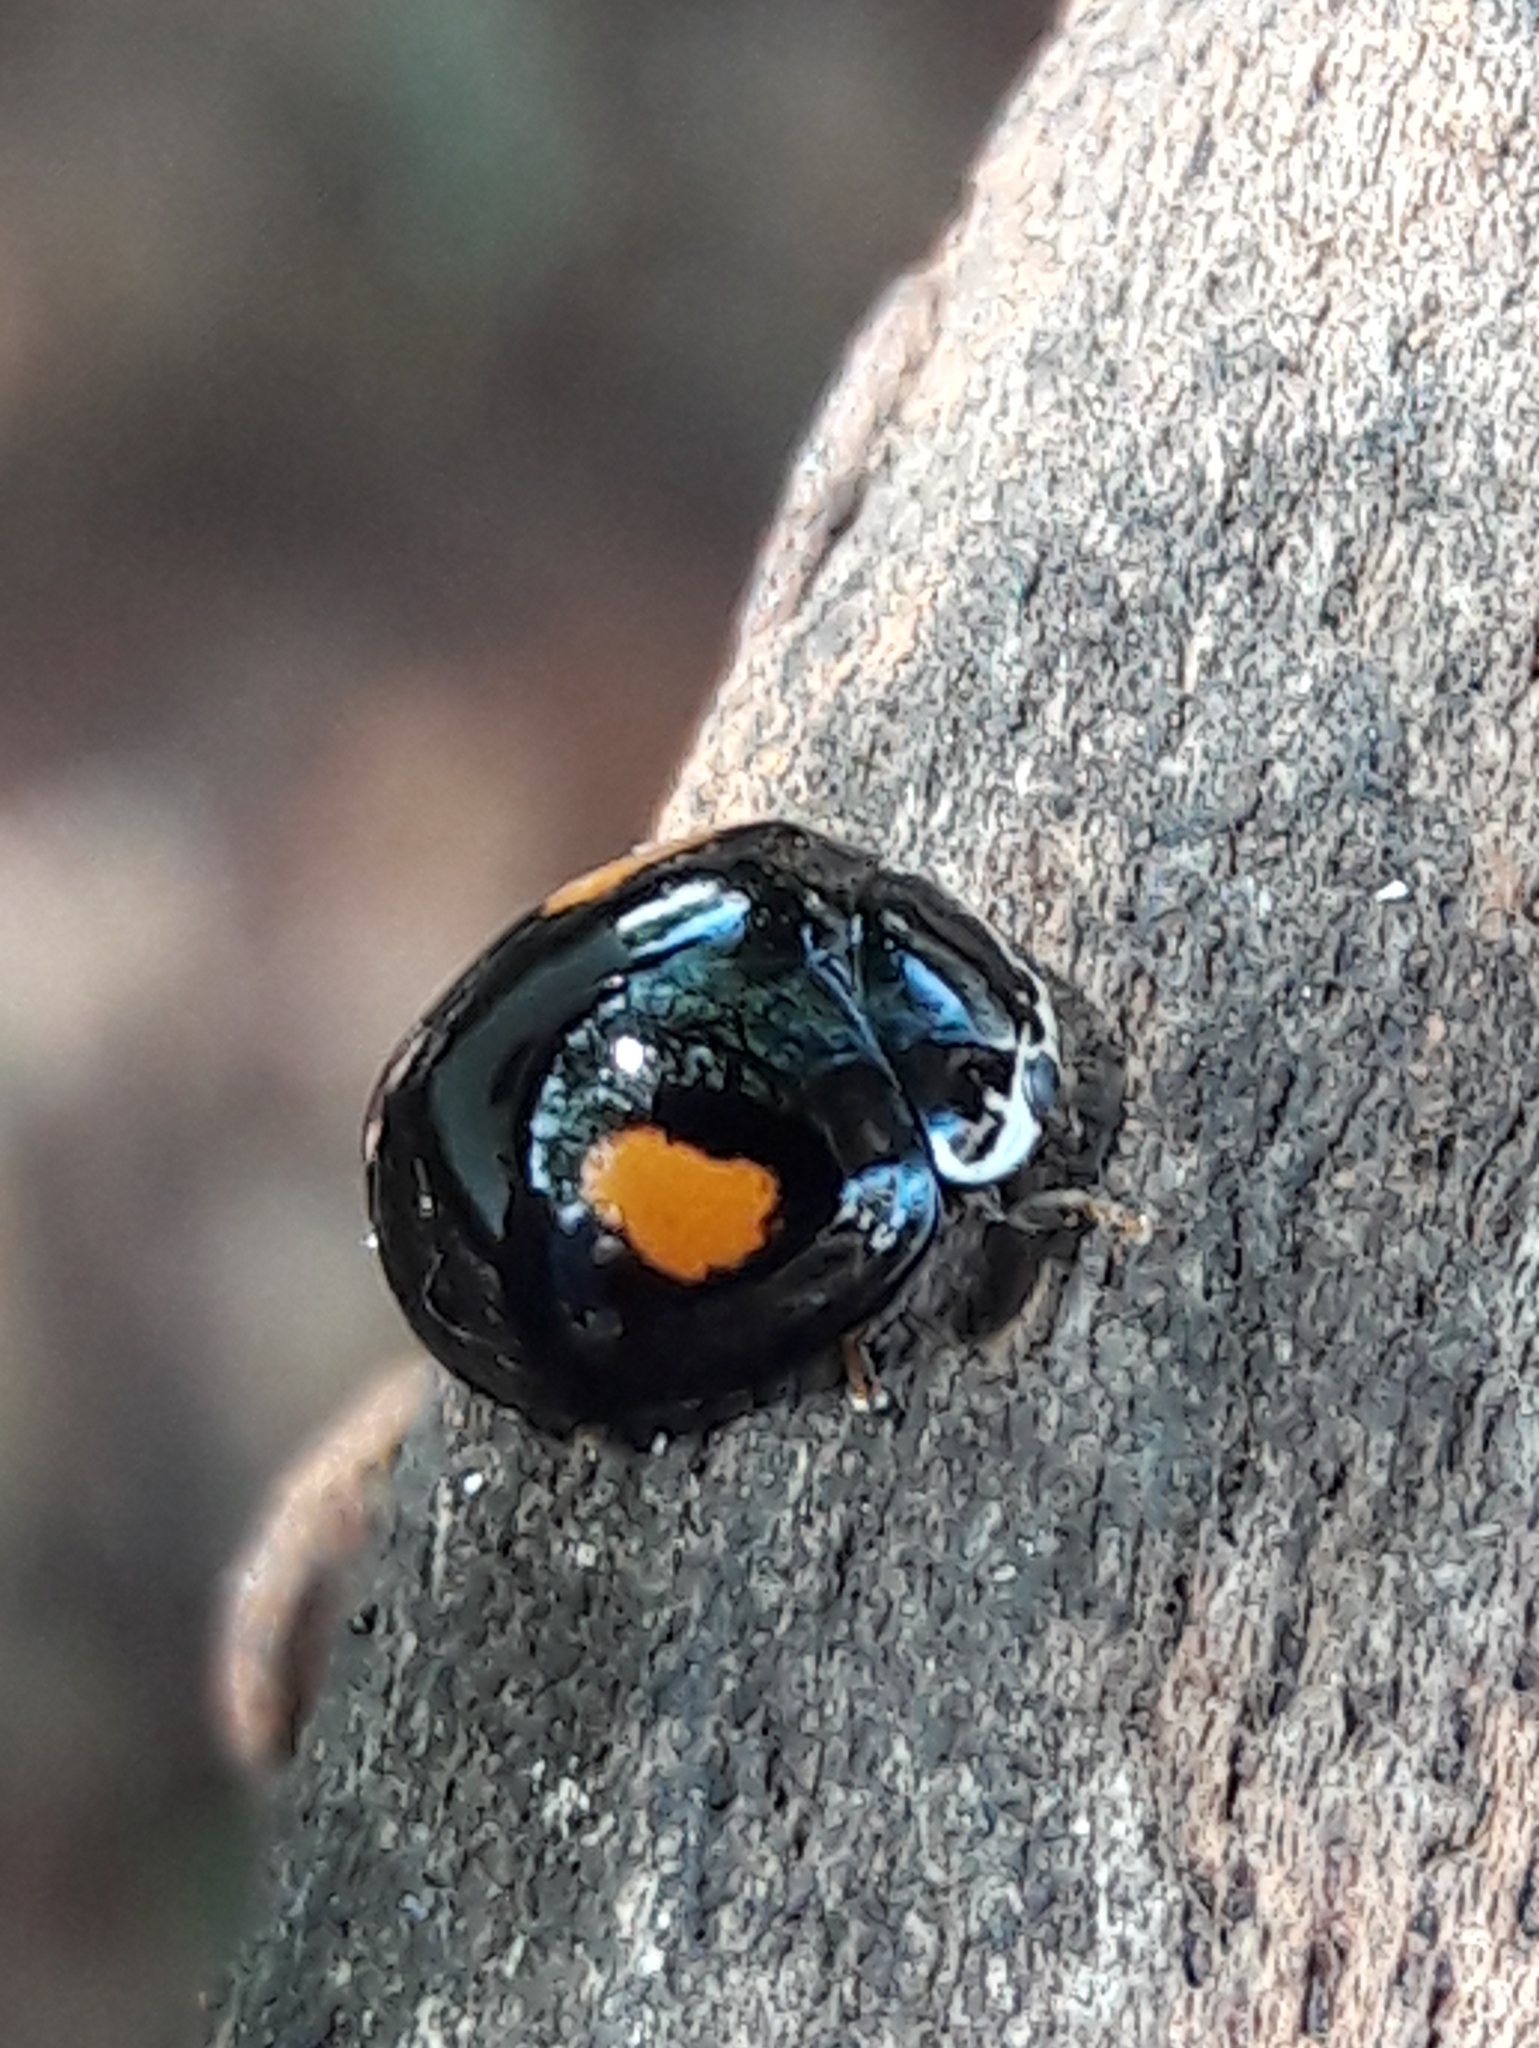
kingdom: Animalia
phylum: Arthropoda
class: Insecta
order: Coleoptera
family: Coccinellidae
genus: Olla
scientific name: Olla v-nigrum
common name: Ashy gray lady beetle
